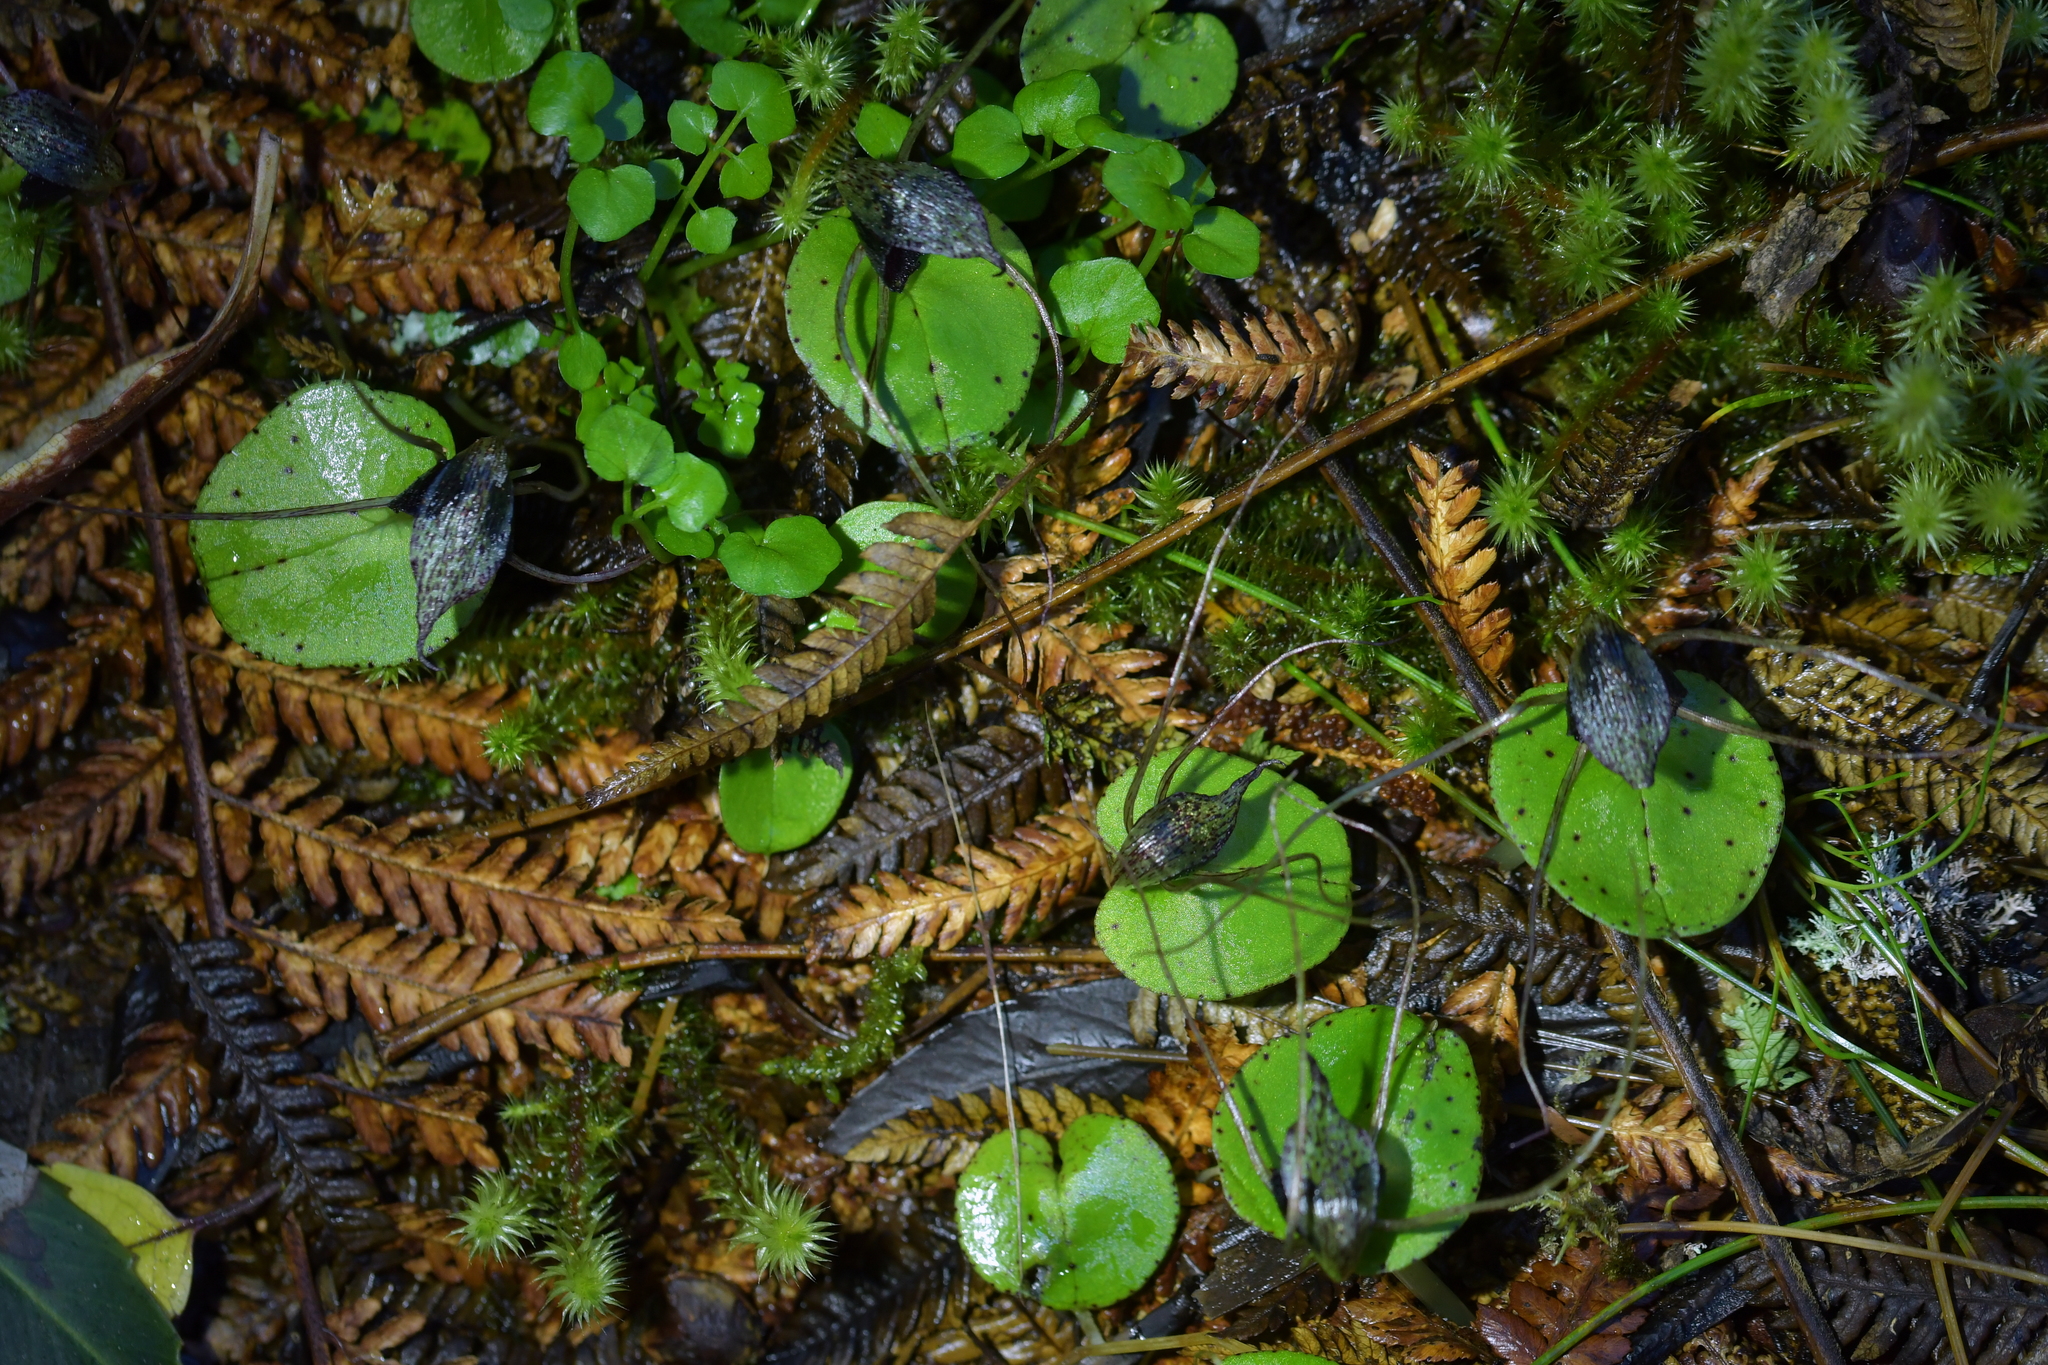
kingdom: Plantae
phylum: Tracheophyta
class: Liliopsida
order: Asparagales
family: Orchidaceae
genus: Corybas
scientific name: Corybas iridescens
